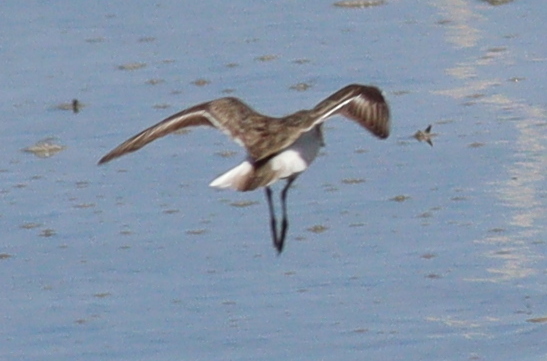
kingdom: Animalia
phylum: Chordata
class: Aves
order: Charadriiformes
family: Scolopacidae
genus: Calidris
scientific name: Calidris temminckii
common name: Temminck's stint
